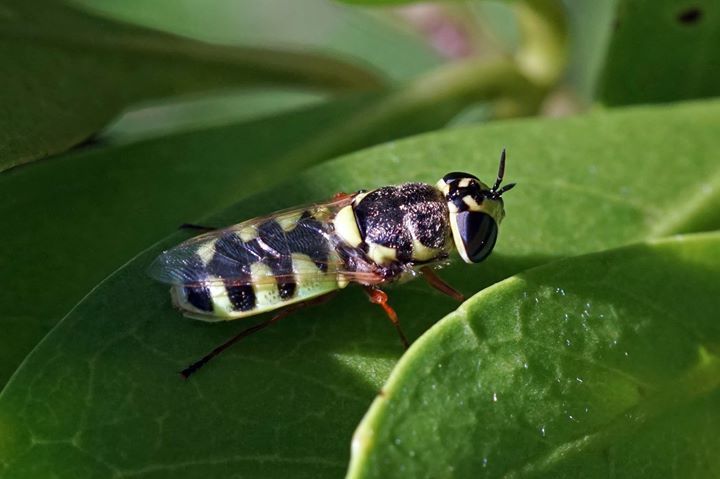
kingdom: Animalia
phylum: Arthropoda
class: Insecta
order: Diptera
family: Stratiomyidae
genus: Odontomyia
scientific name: Odontomyia rufipes
